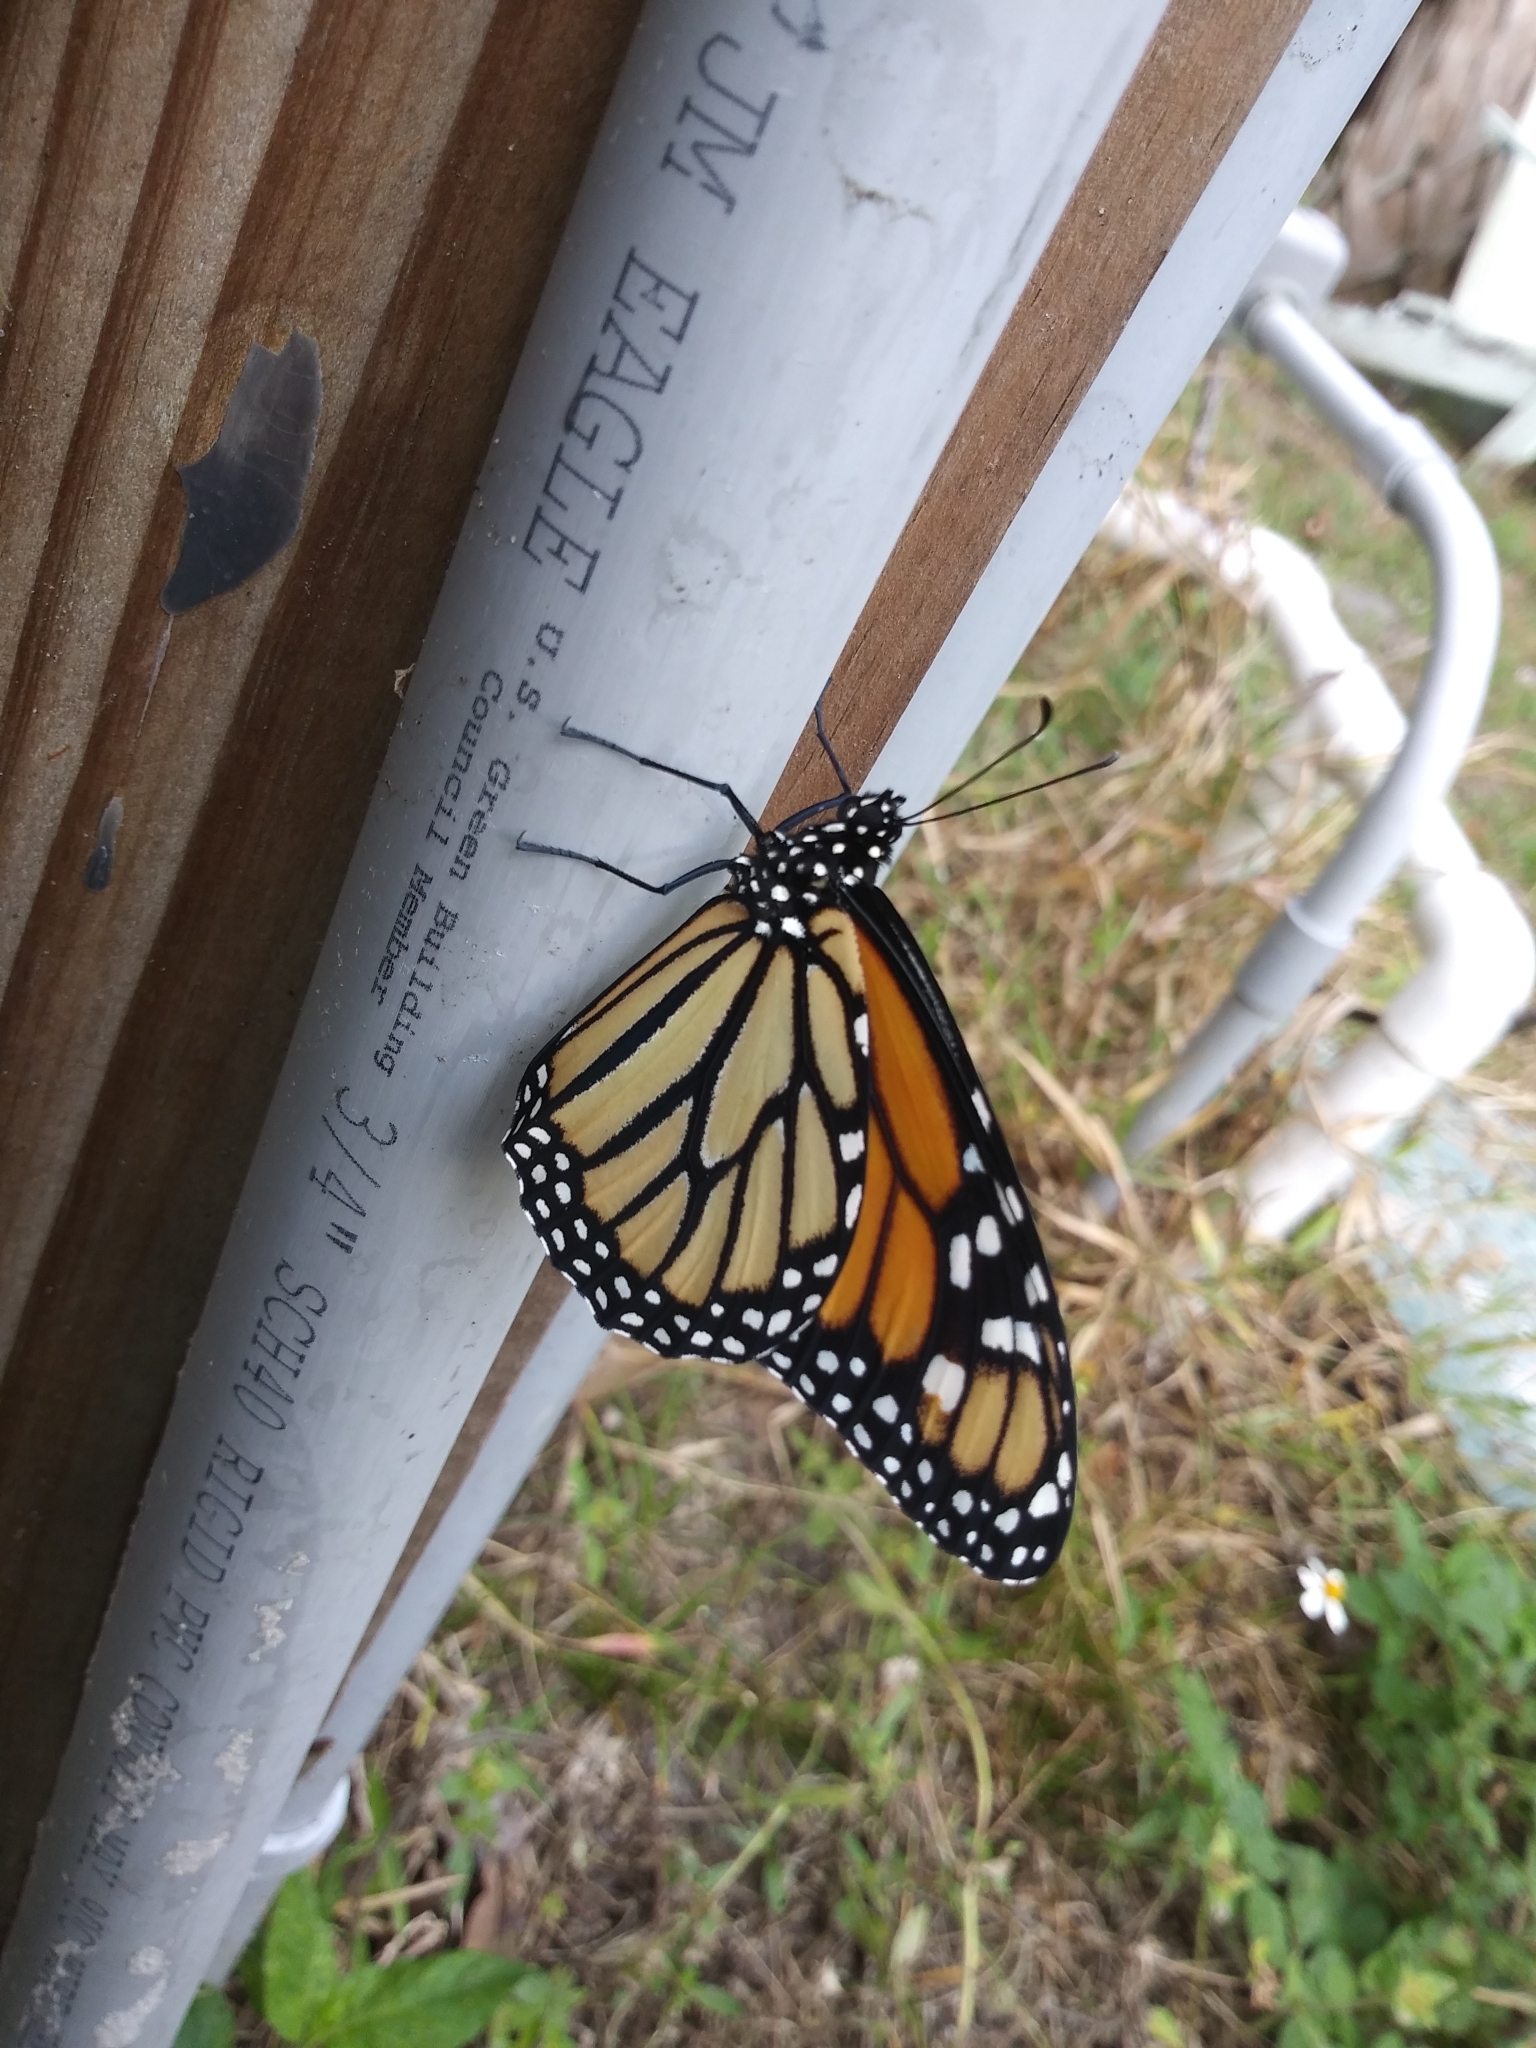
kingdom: Animalia
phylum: Arthropoda
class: Insecta
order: Lepidoptera
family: Nymphalidae
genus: Danaus
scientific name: Danaus plexippus
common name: Monarch
